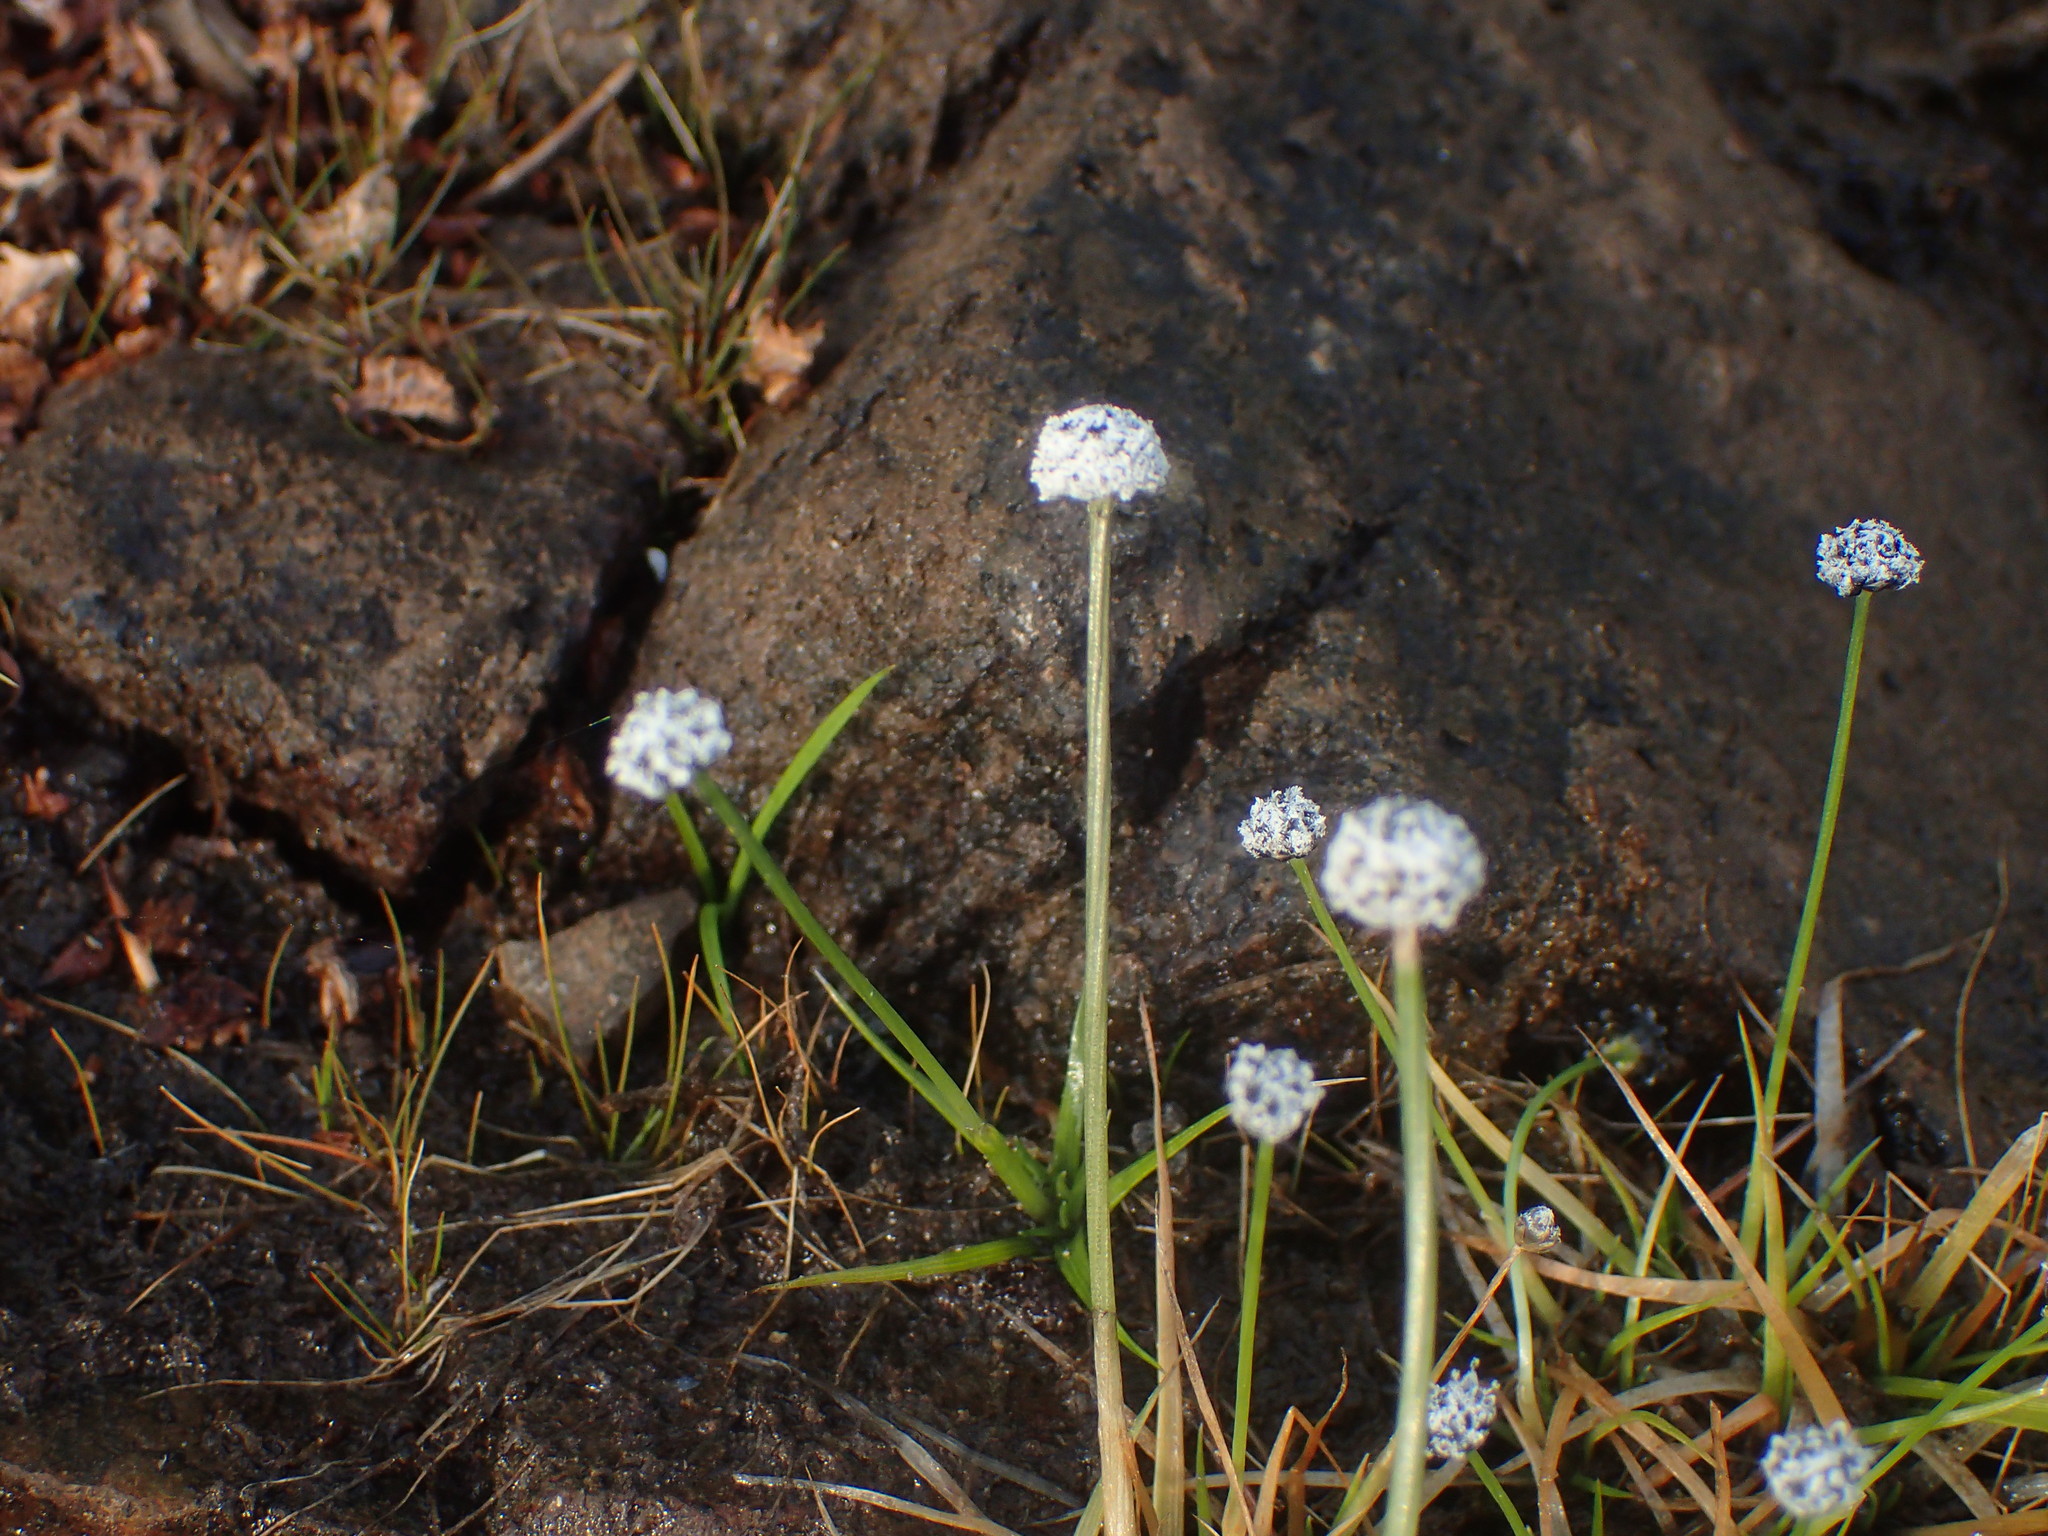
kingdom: Plantae
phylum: Tracheophyta
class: Liliopsida
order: Poales
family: Eriocaulaceae
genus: Eriocaulon
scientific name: Eriocaulon aquaticum
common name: Pipewort
